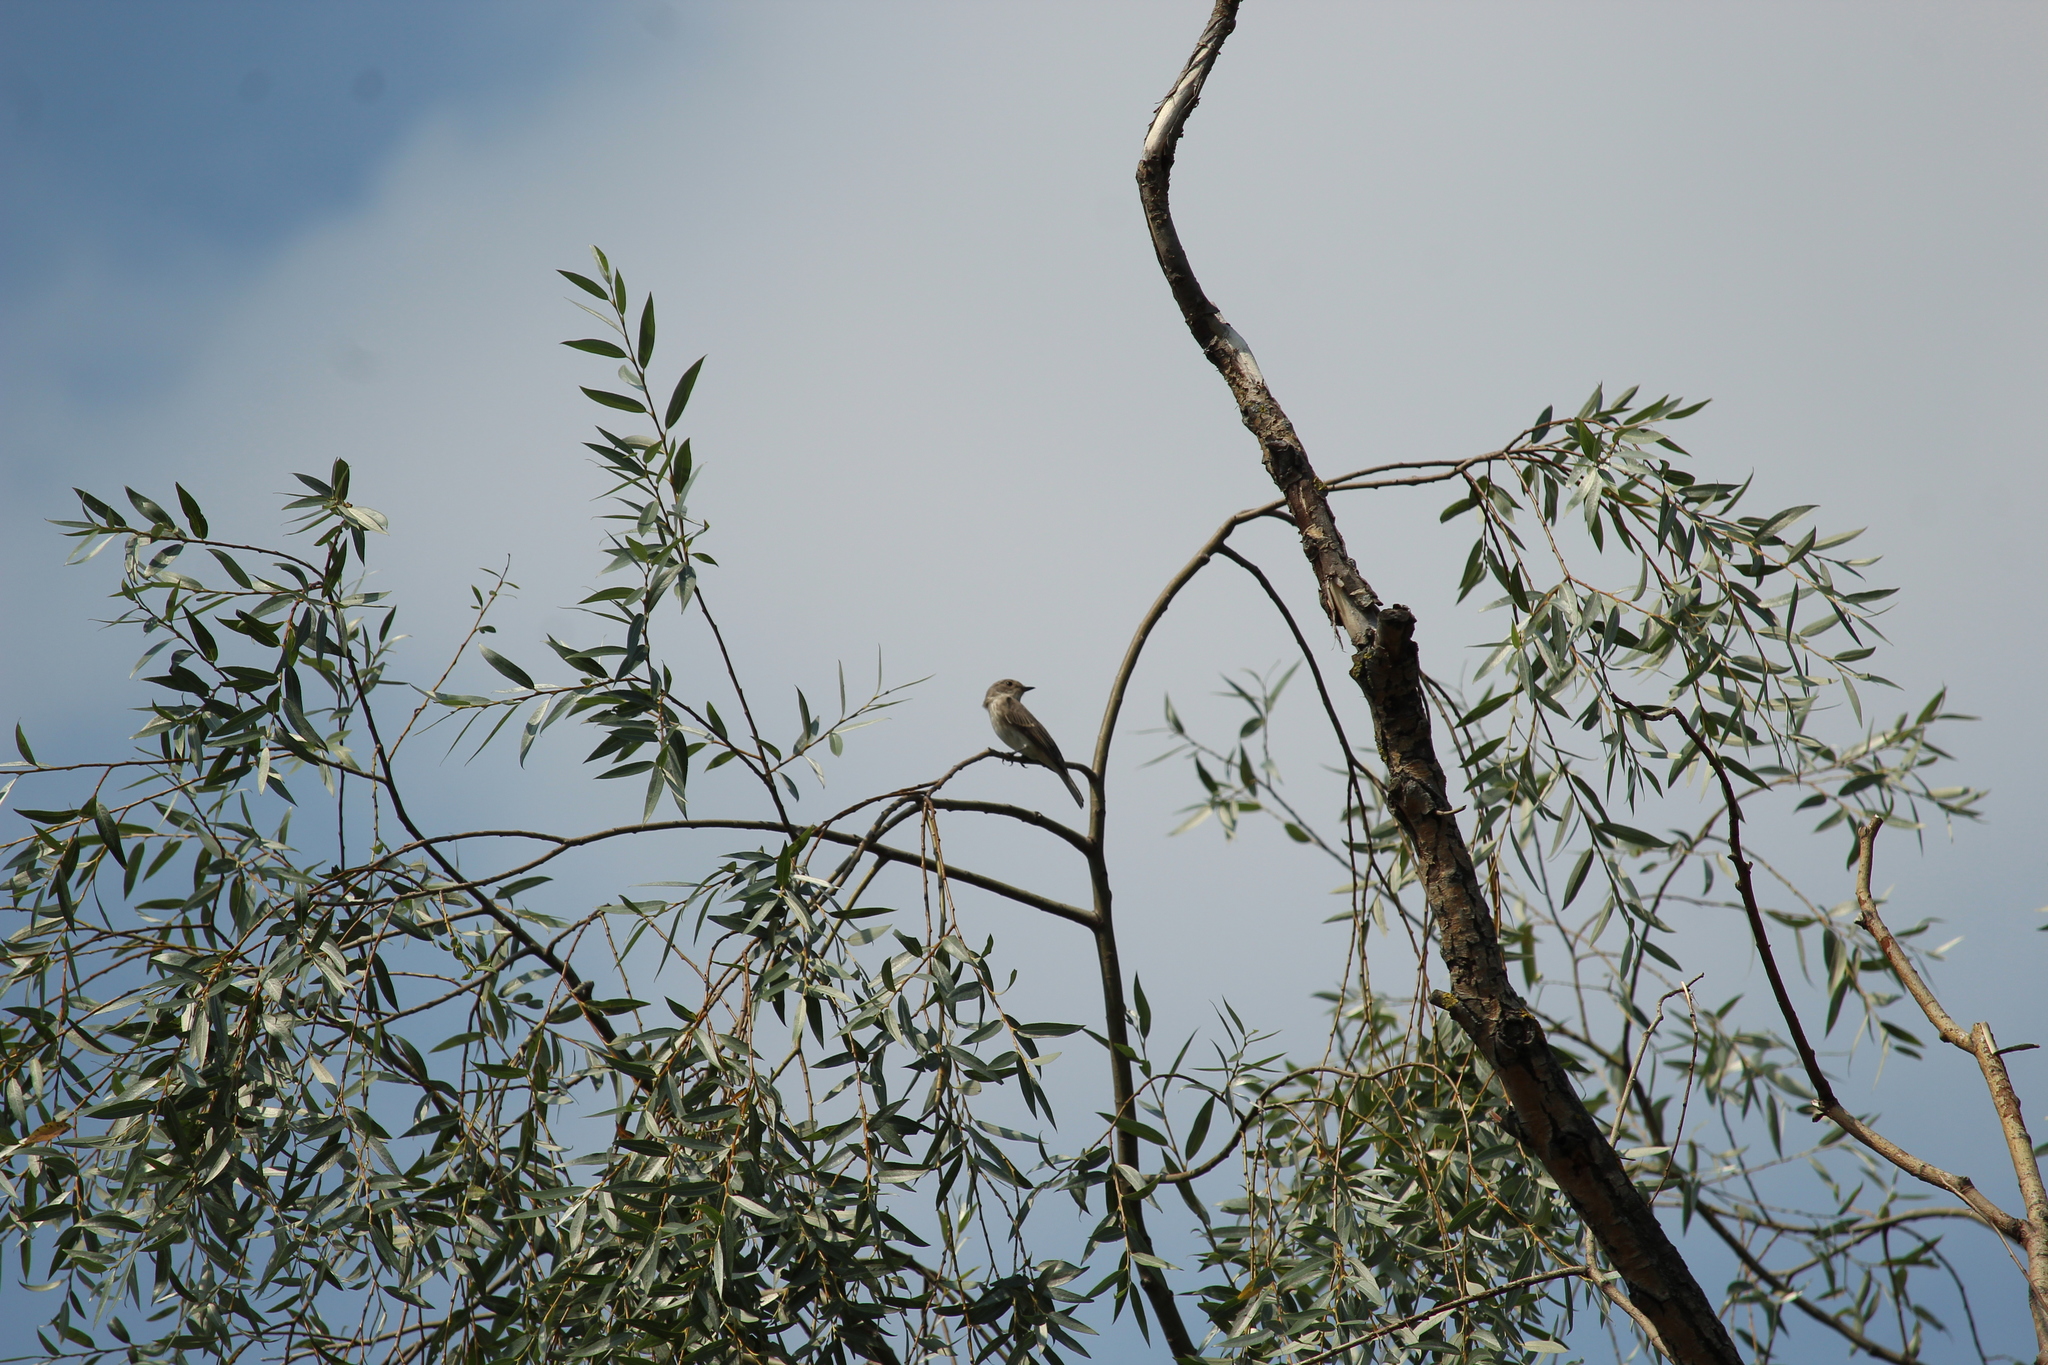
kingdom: Animalia
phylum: Chordata
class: Aves
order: Passeriformes
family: Muscicapidae
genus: Muscicapa
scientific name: Muscicapa striata
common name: Spotted flycatcher
